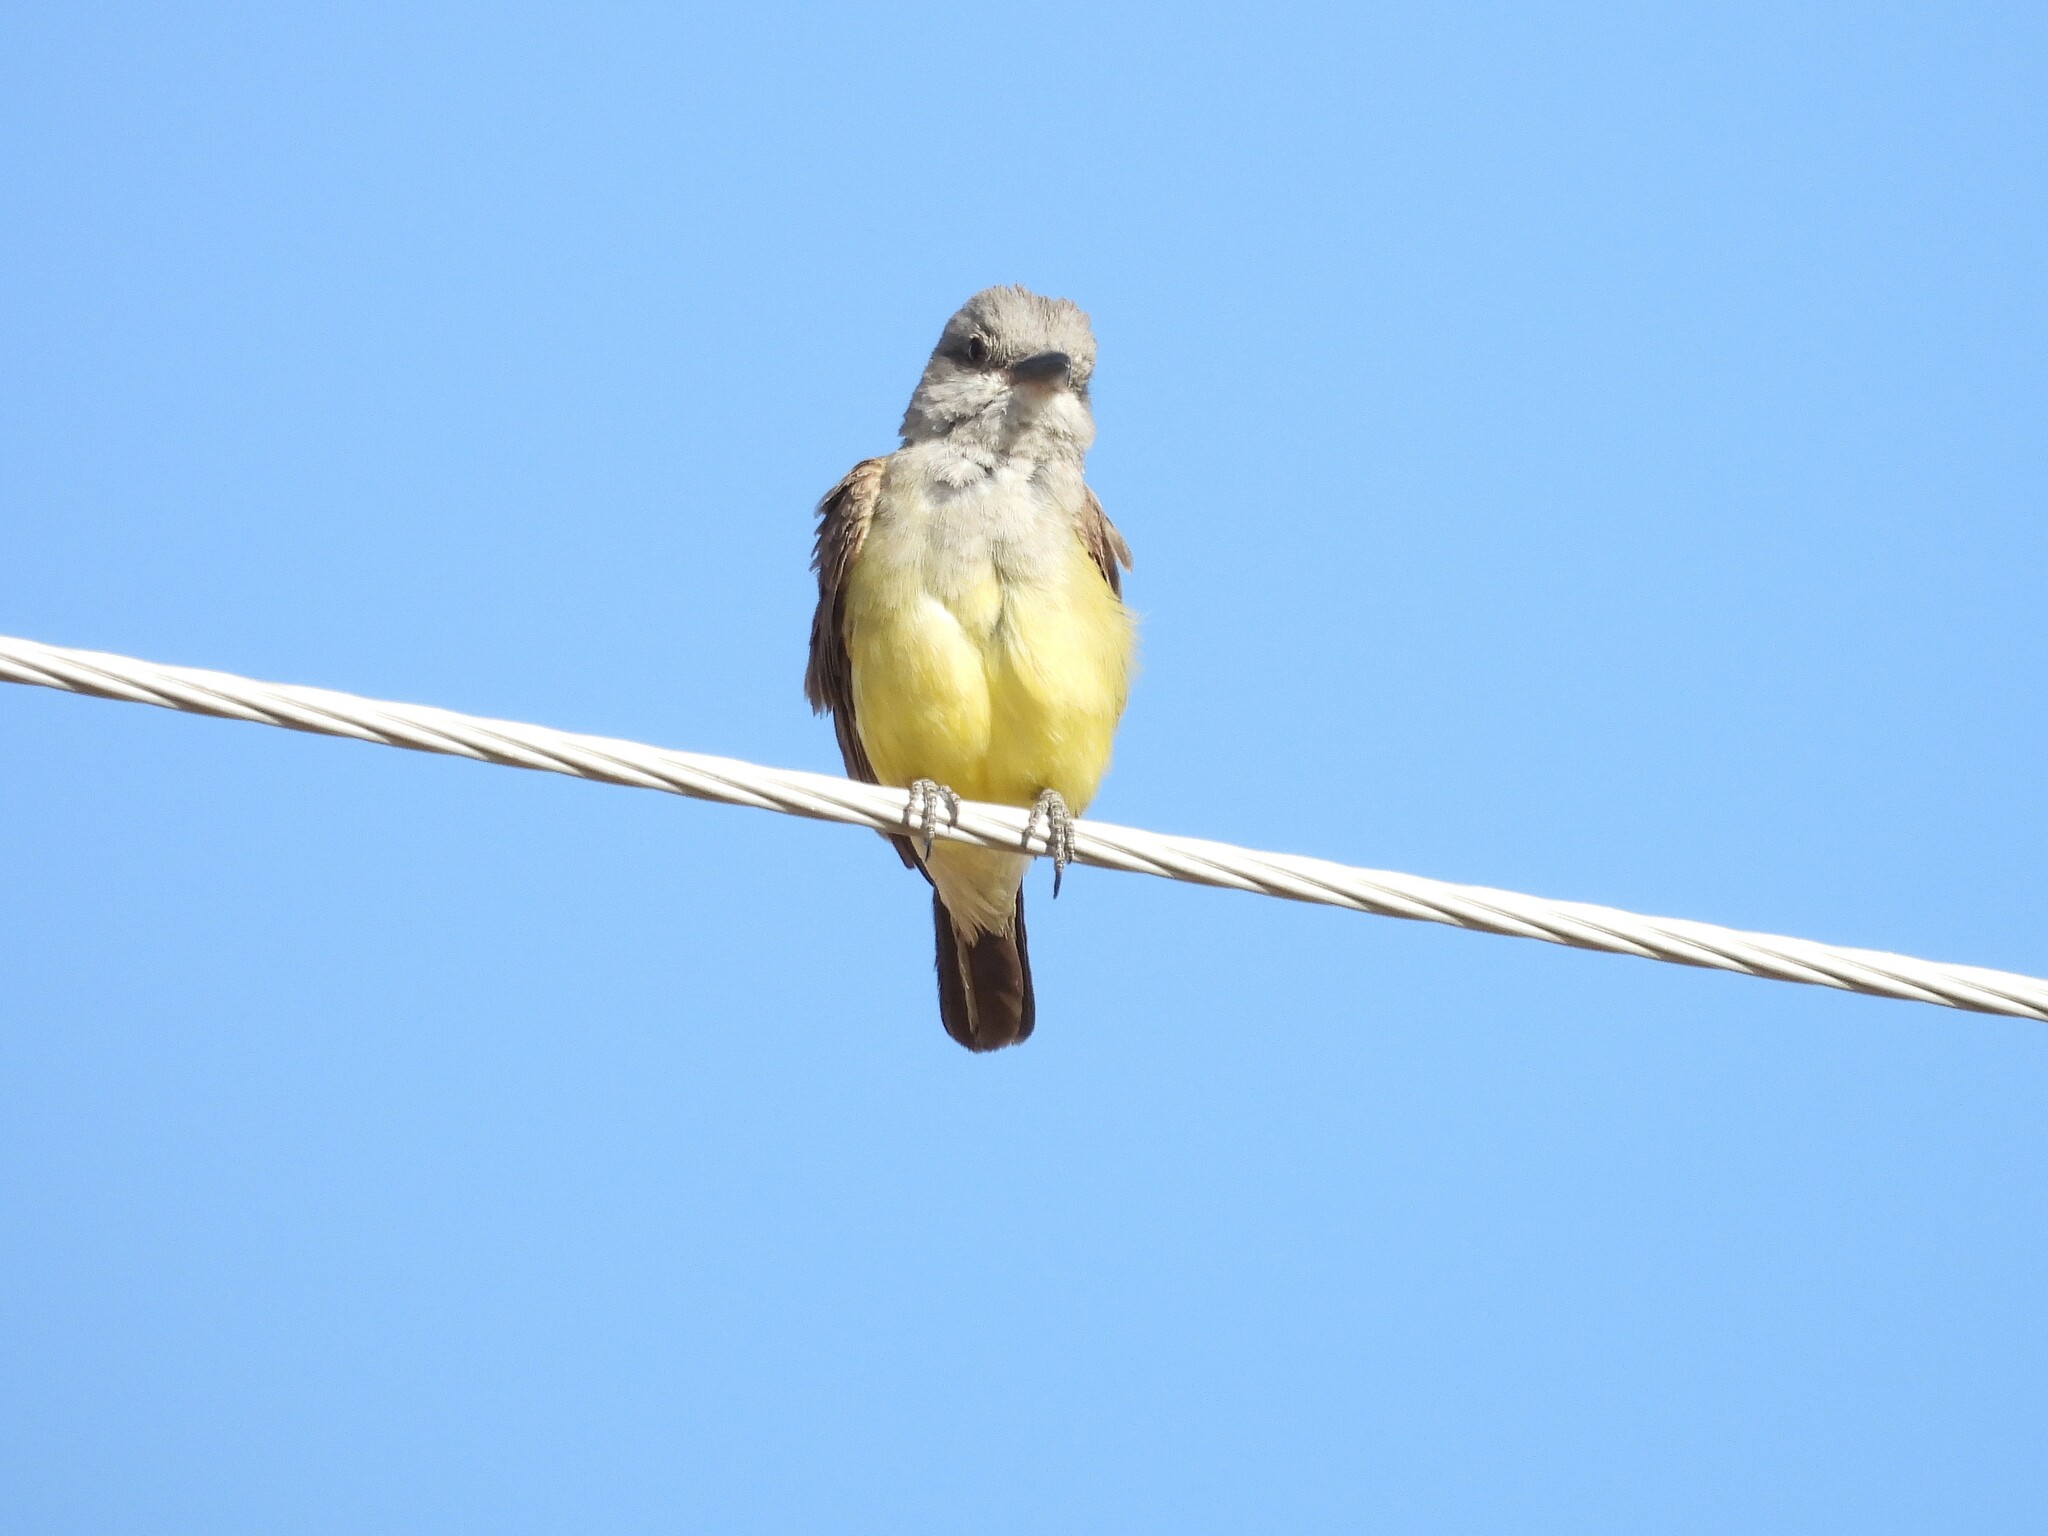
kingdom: Animalia
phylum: Chordata
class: Aves
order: Passeriformes
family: Tyrannidae
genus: Tyrannus
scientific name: Tyrannus verticalis
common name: Western kingbird
